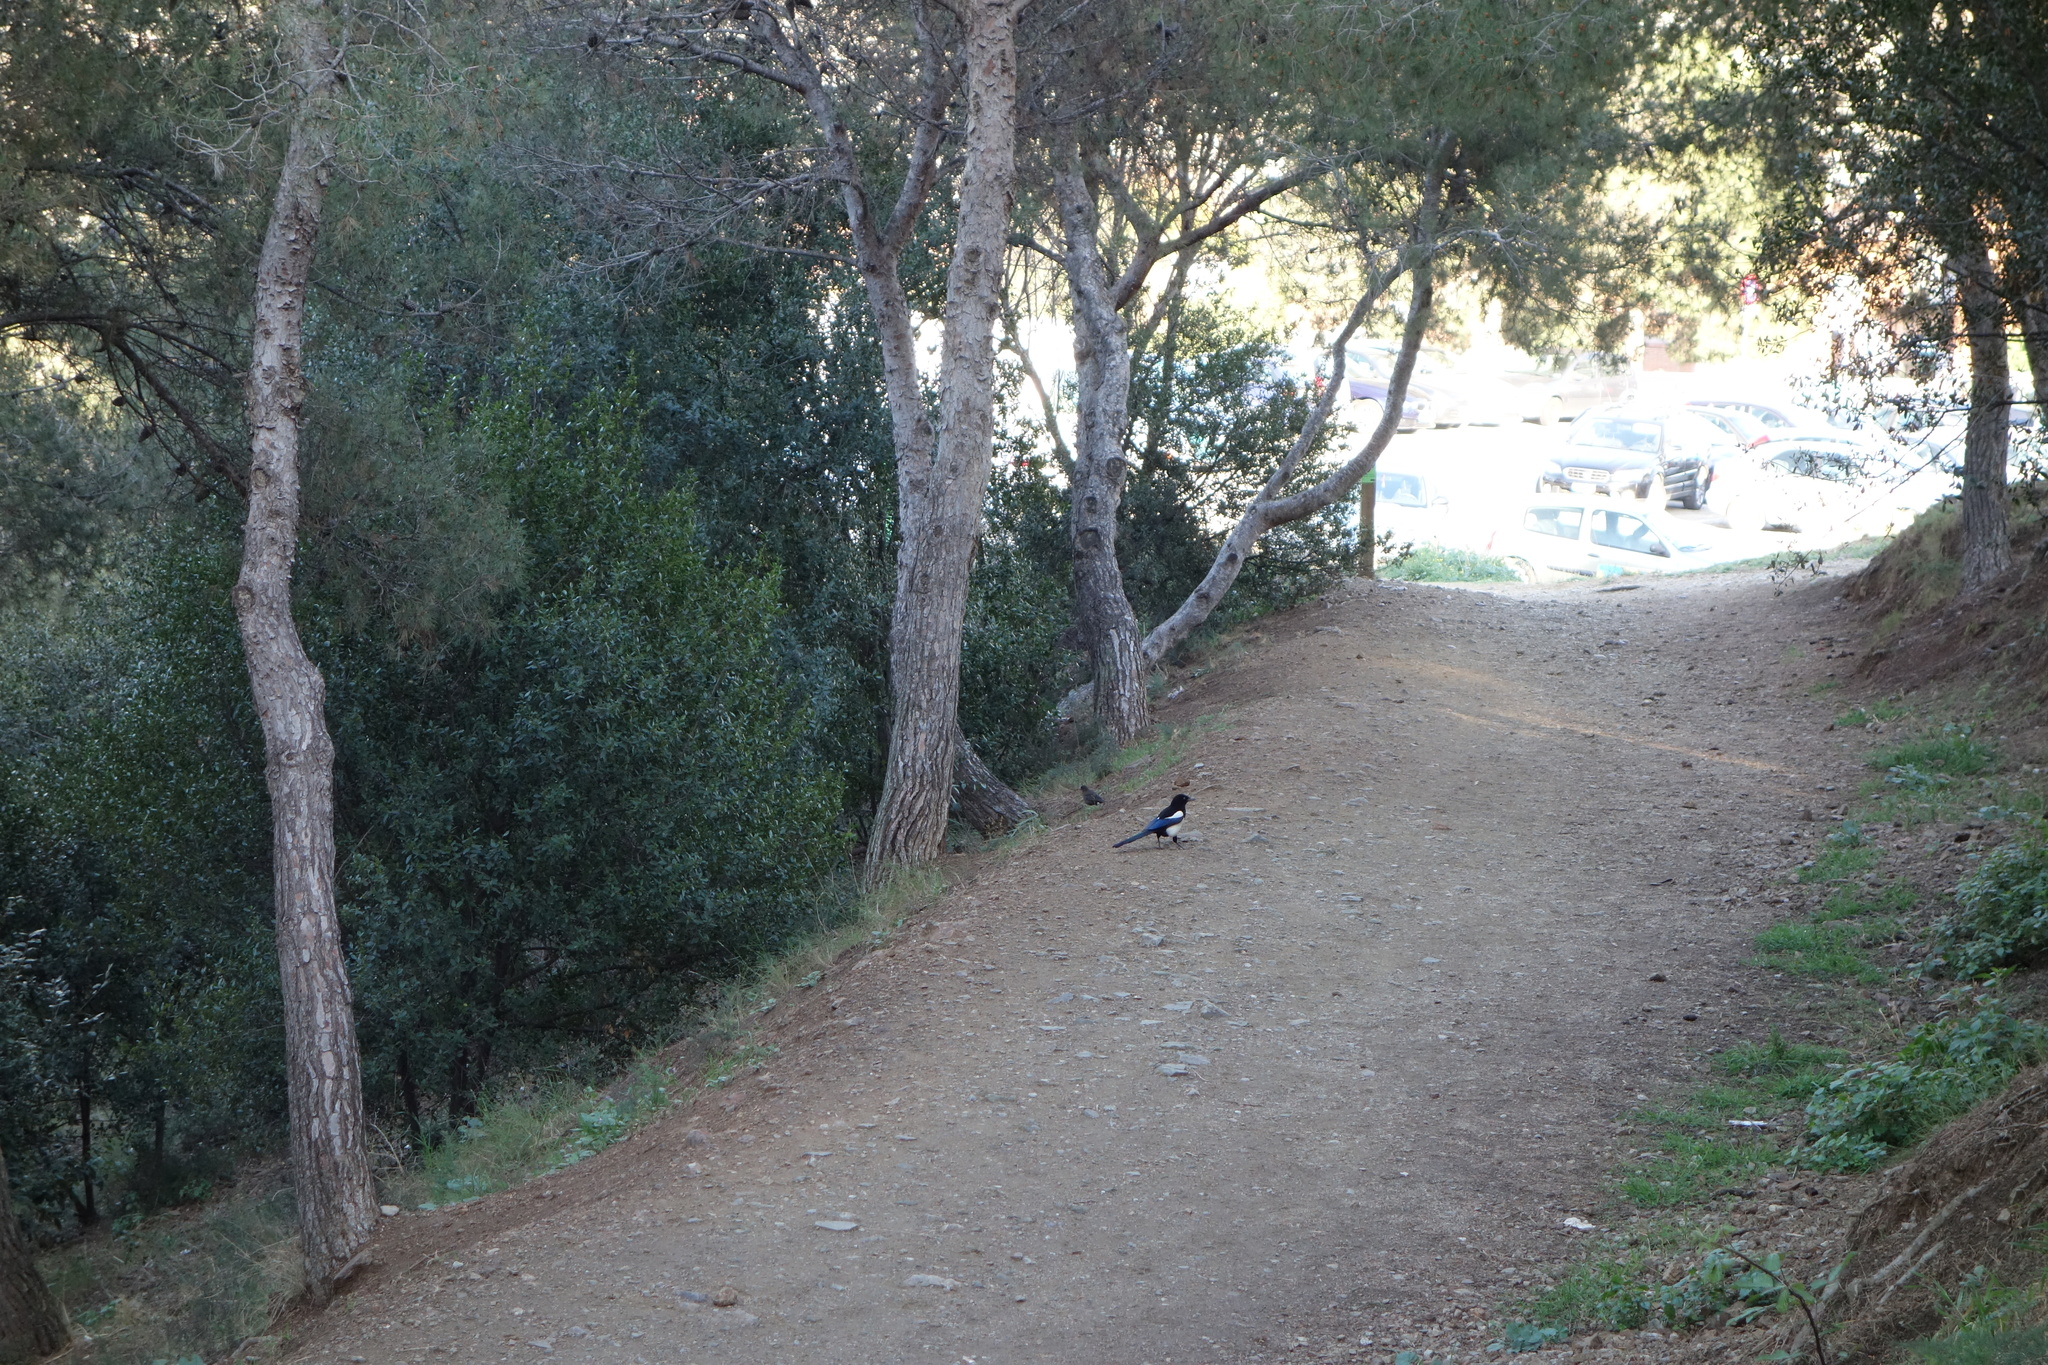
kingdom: Animalia
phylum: Chordata
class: Aves
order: Passeriformes
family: Corvidae
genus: Pica
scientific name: Pica pica
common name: Eurasian magpie
